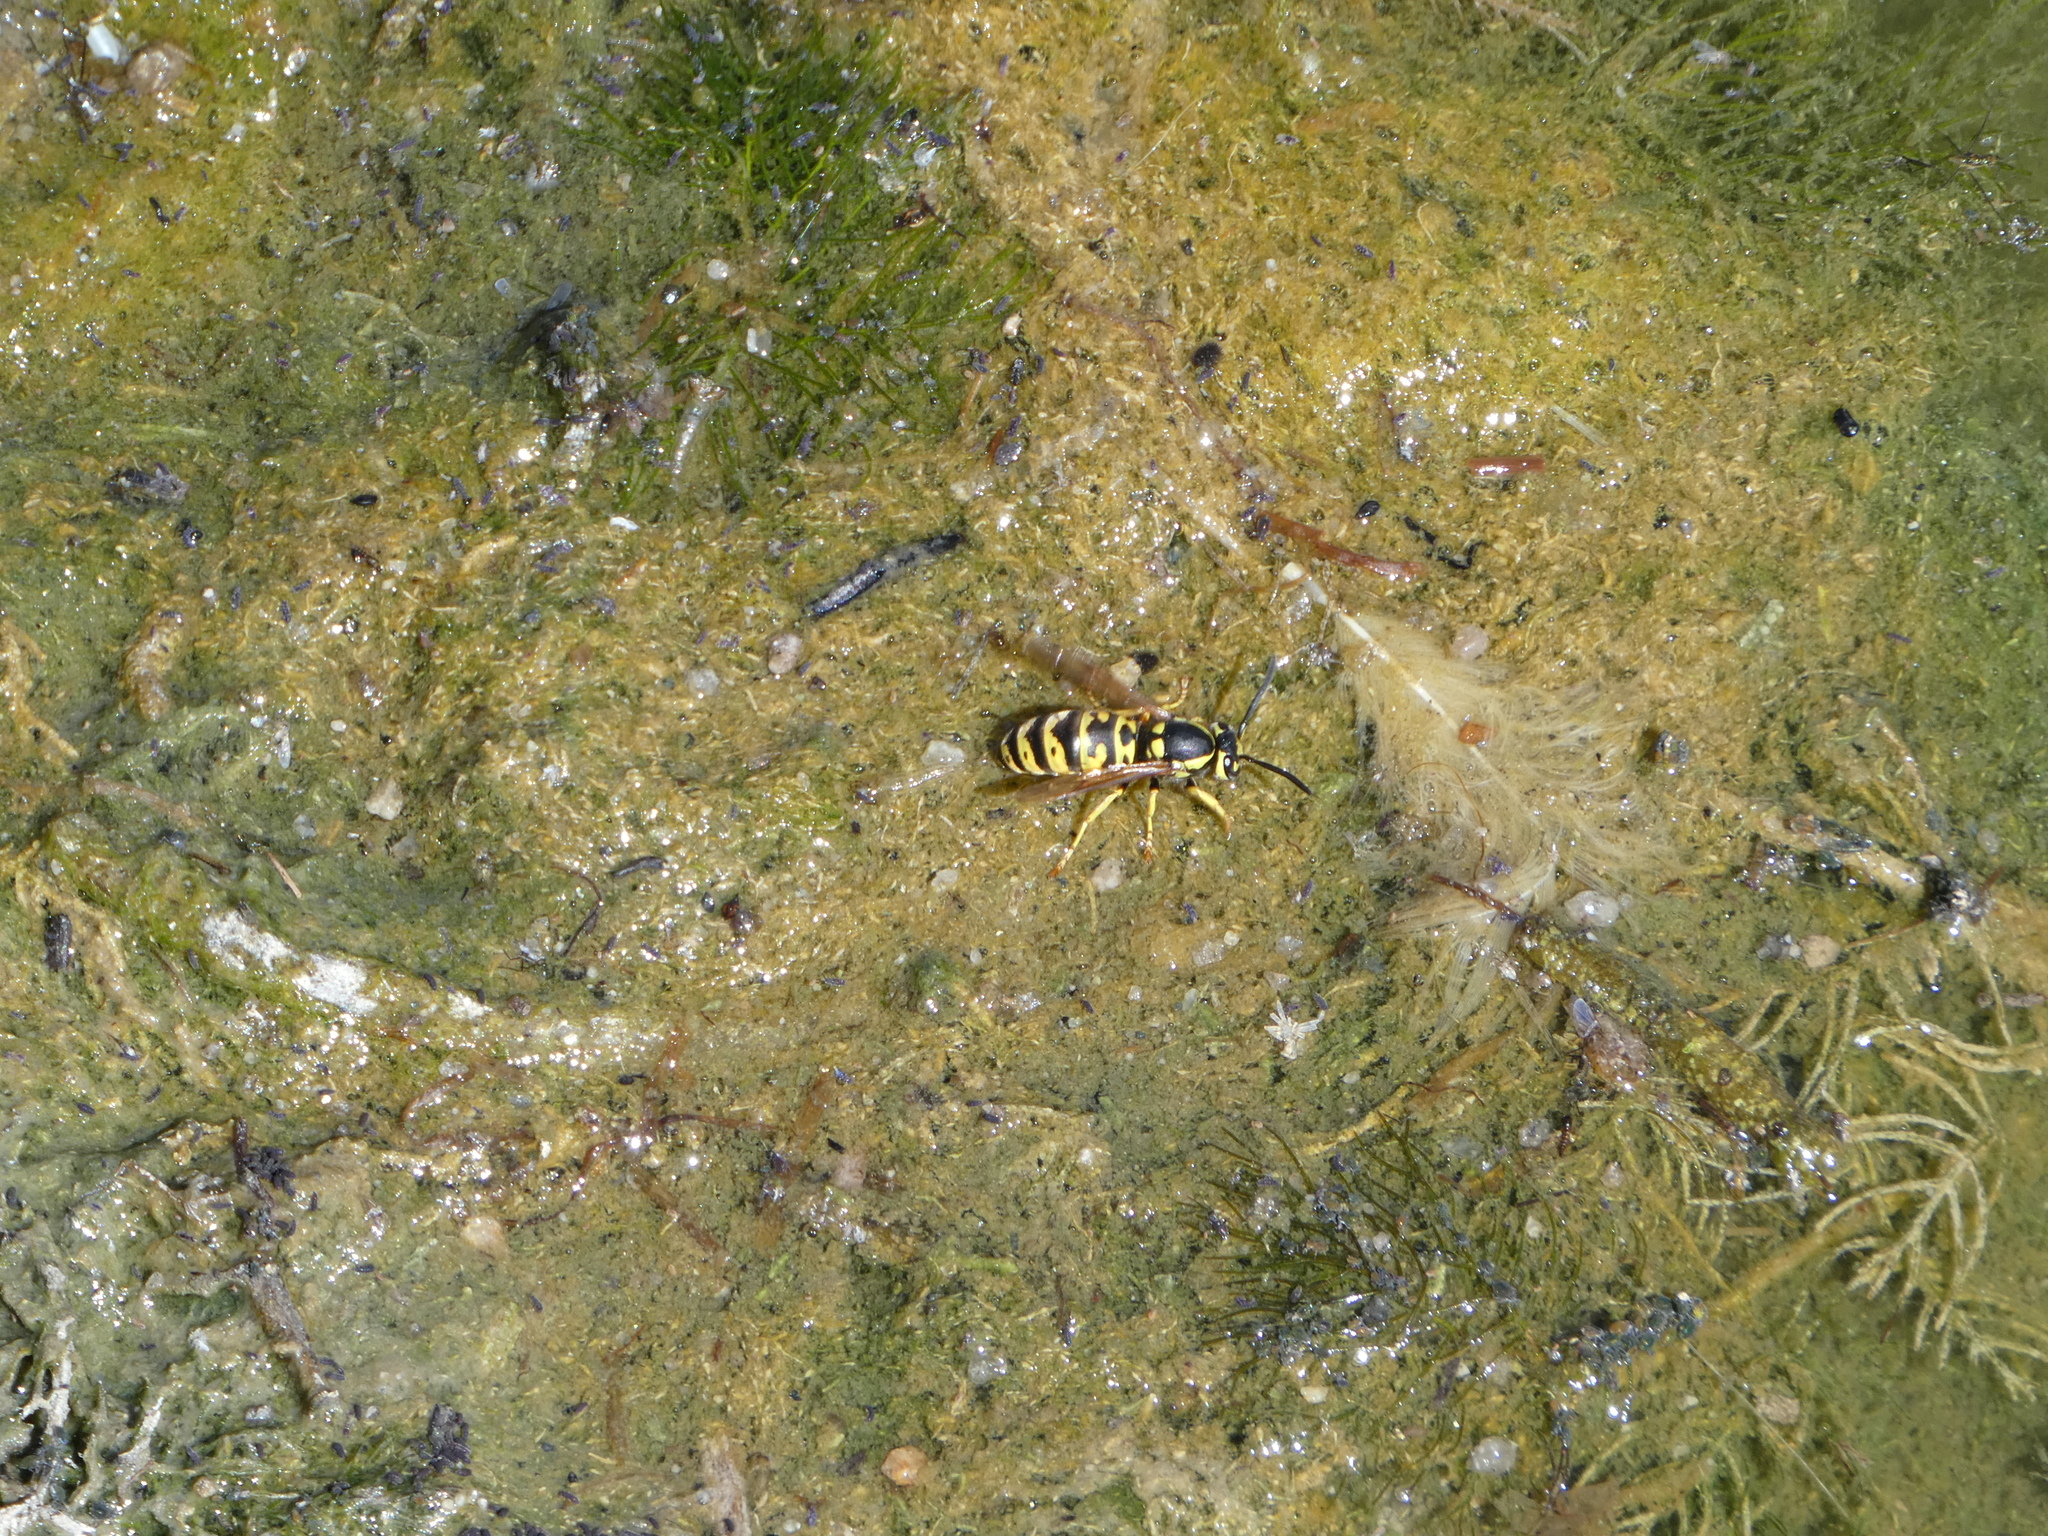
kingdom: Animalia
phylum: Arthropoda
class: Insecta
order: Hymenoptera
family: Vespidae
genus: Vespula
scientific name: Vespula atropilosa
